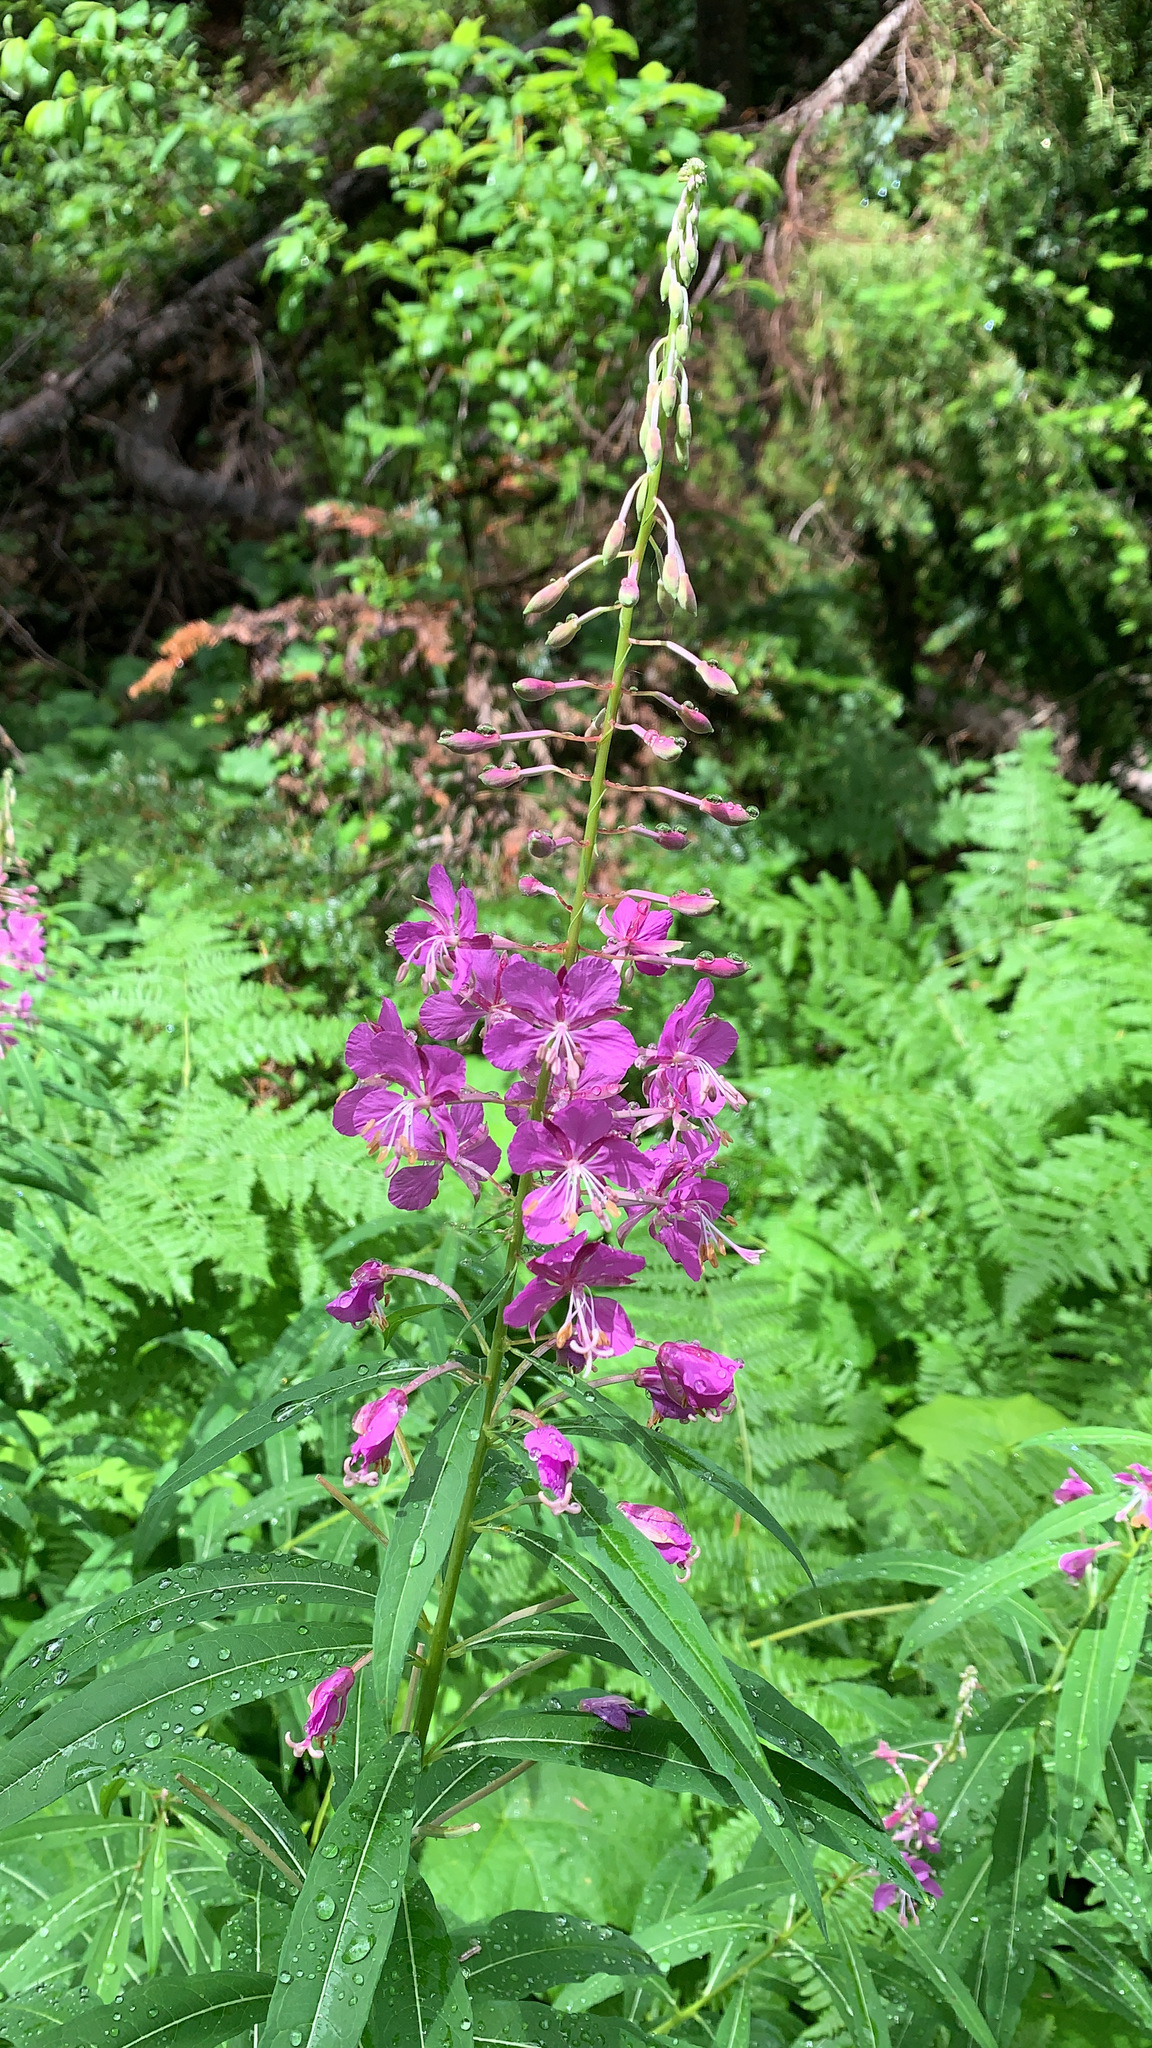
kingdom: Plantae
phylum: Tracheophyta
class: Magnoliopsida
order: Myrtales
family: Onagraceae
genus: Chamaenerion
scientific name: Chamaenerion angustifolium
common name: Fireweed
